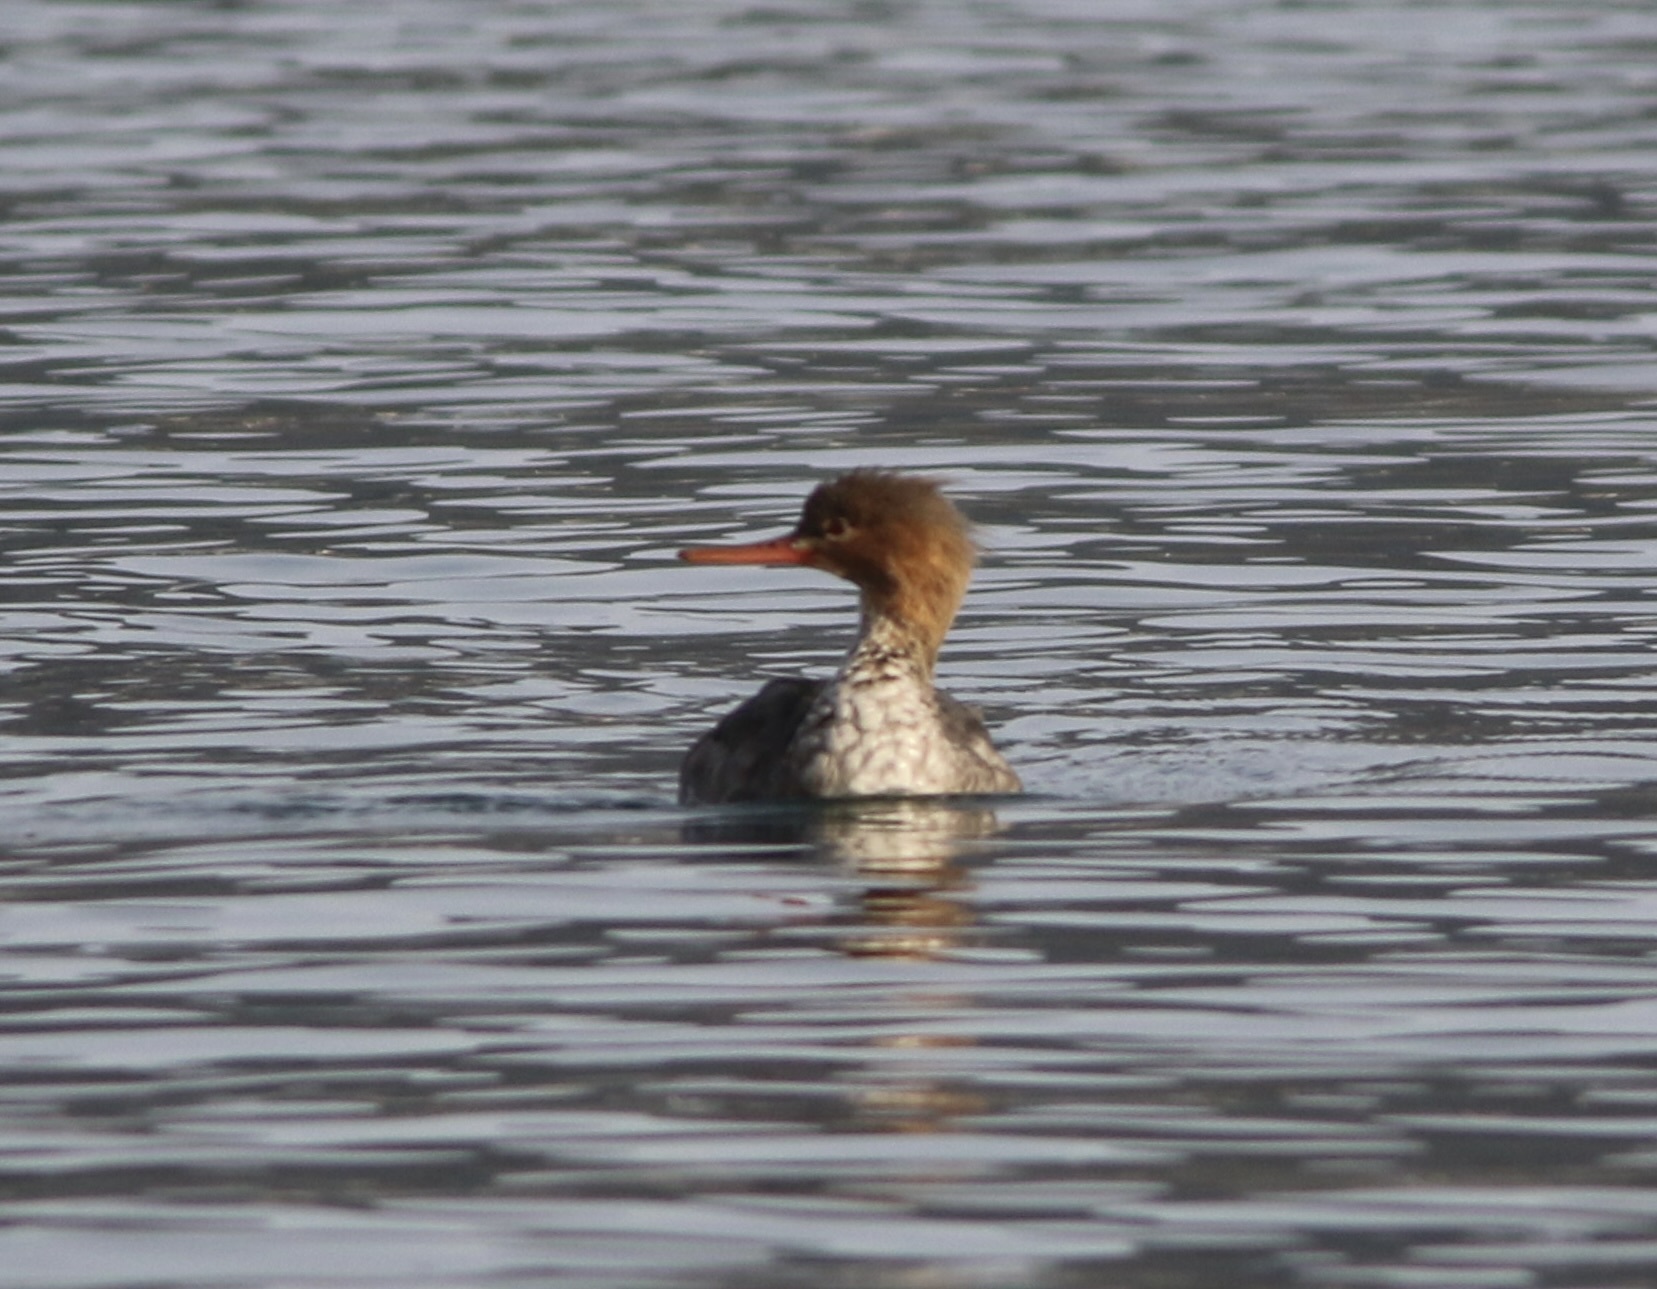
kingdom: Animalia
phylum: Chordata
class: Aves
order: Anseriformes
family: Anatidae
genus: Mergus
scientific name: Mergus serrator
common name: Red-breasted merganser
